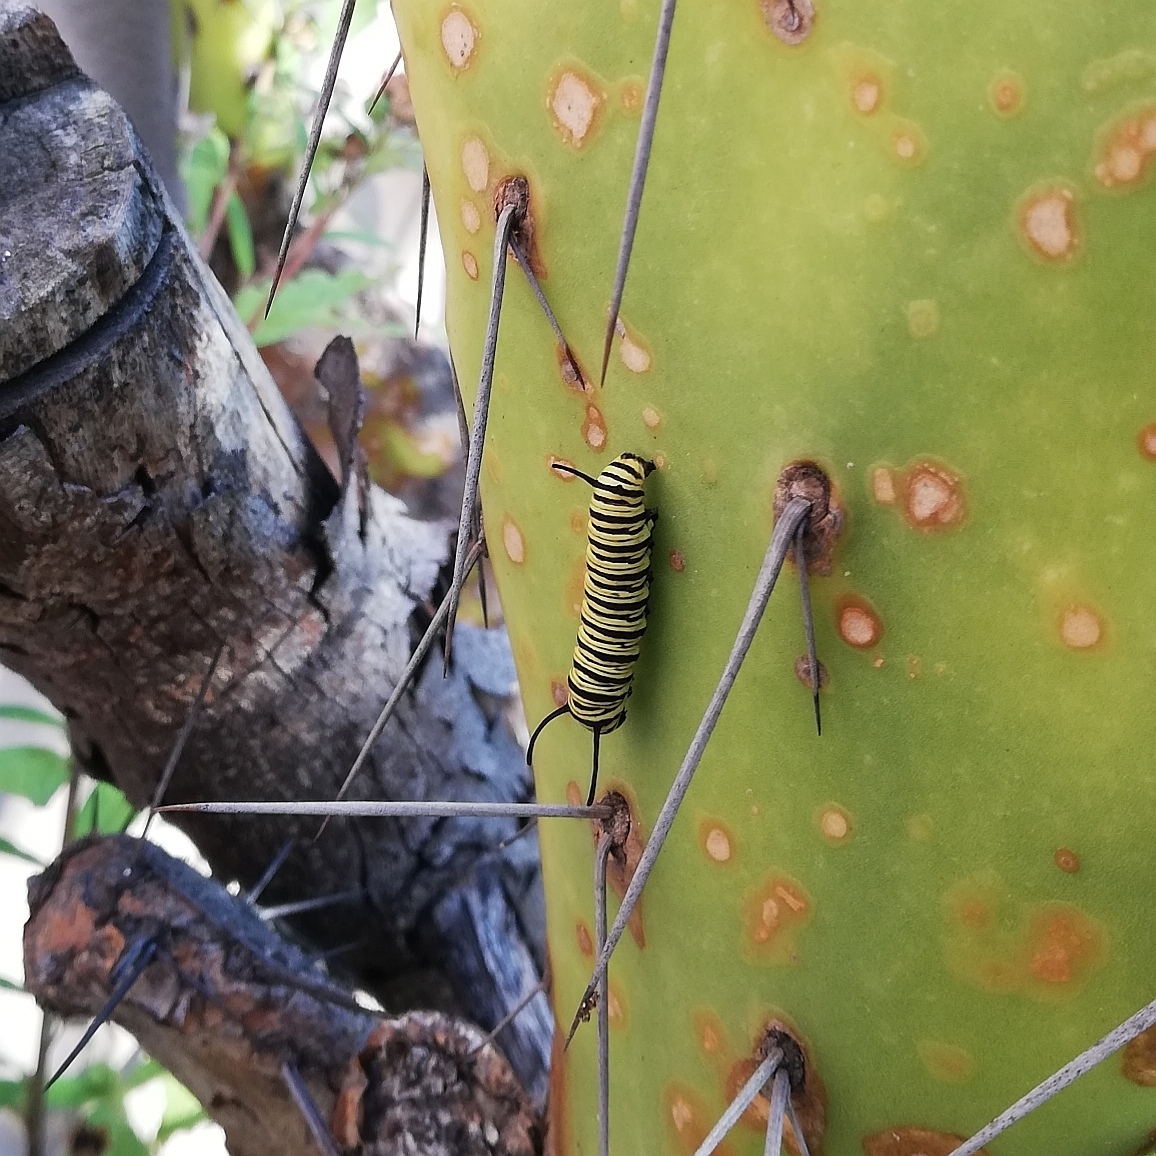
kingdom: Animalia
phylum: Arthropoda
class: Insecta
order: Lepidoptera
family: Nymphalidae
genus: Danaus
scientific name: Danaus erippus
